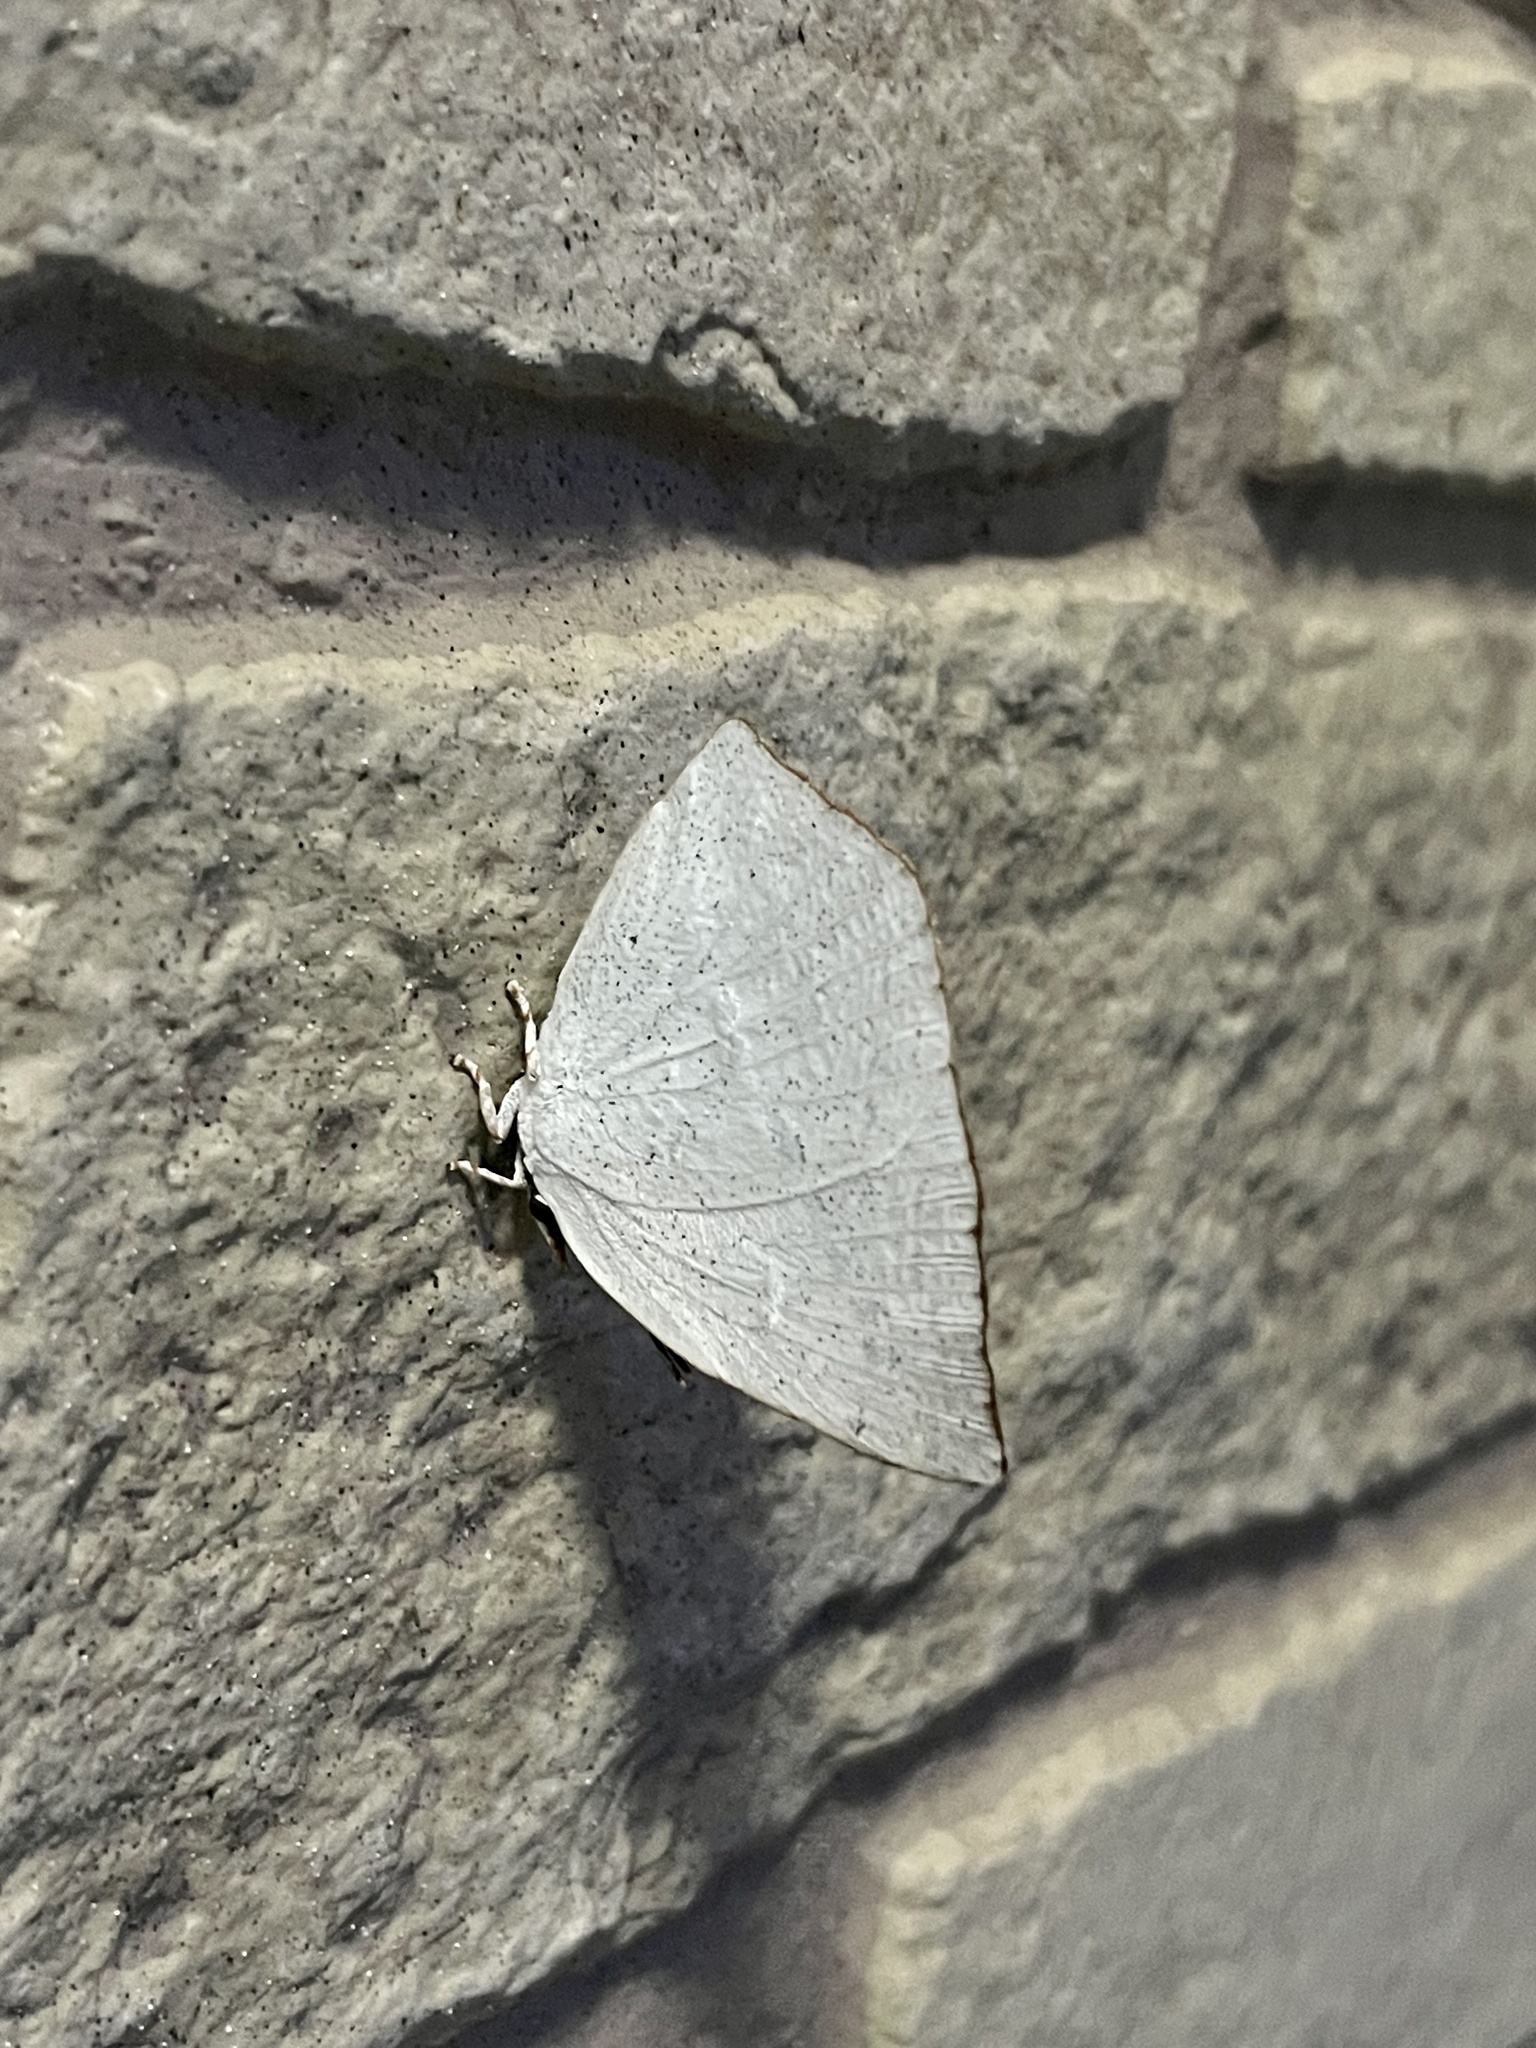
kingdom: Animalia
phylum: Arthropoda
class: Insecta
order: Lepidoptera
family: Lycaenidae
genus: Curetis
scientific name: Curetis acuta
